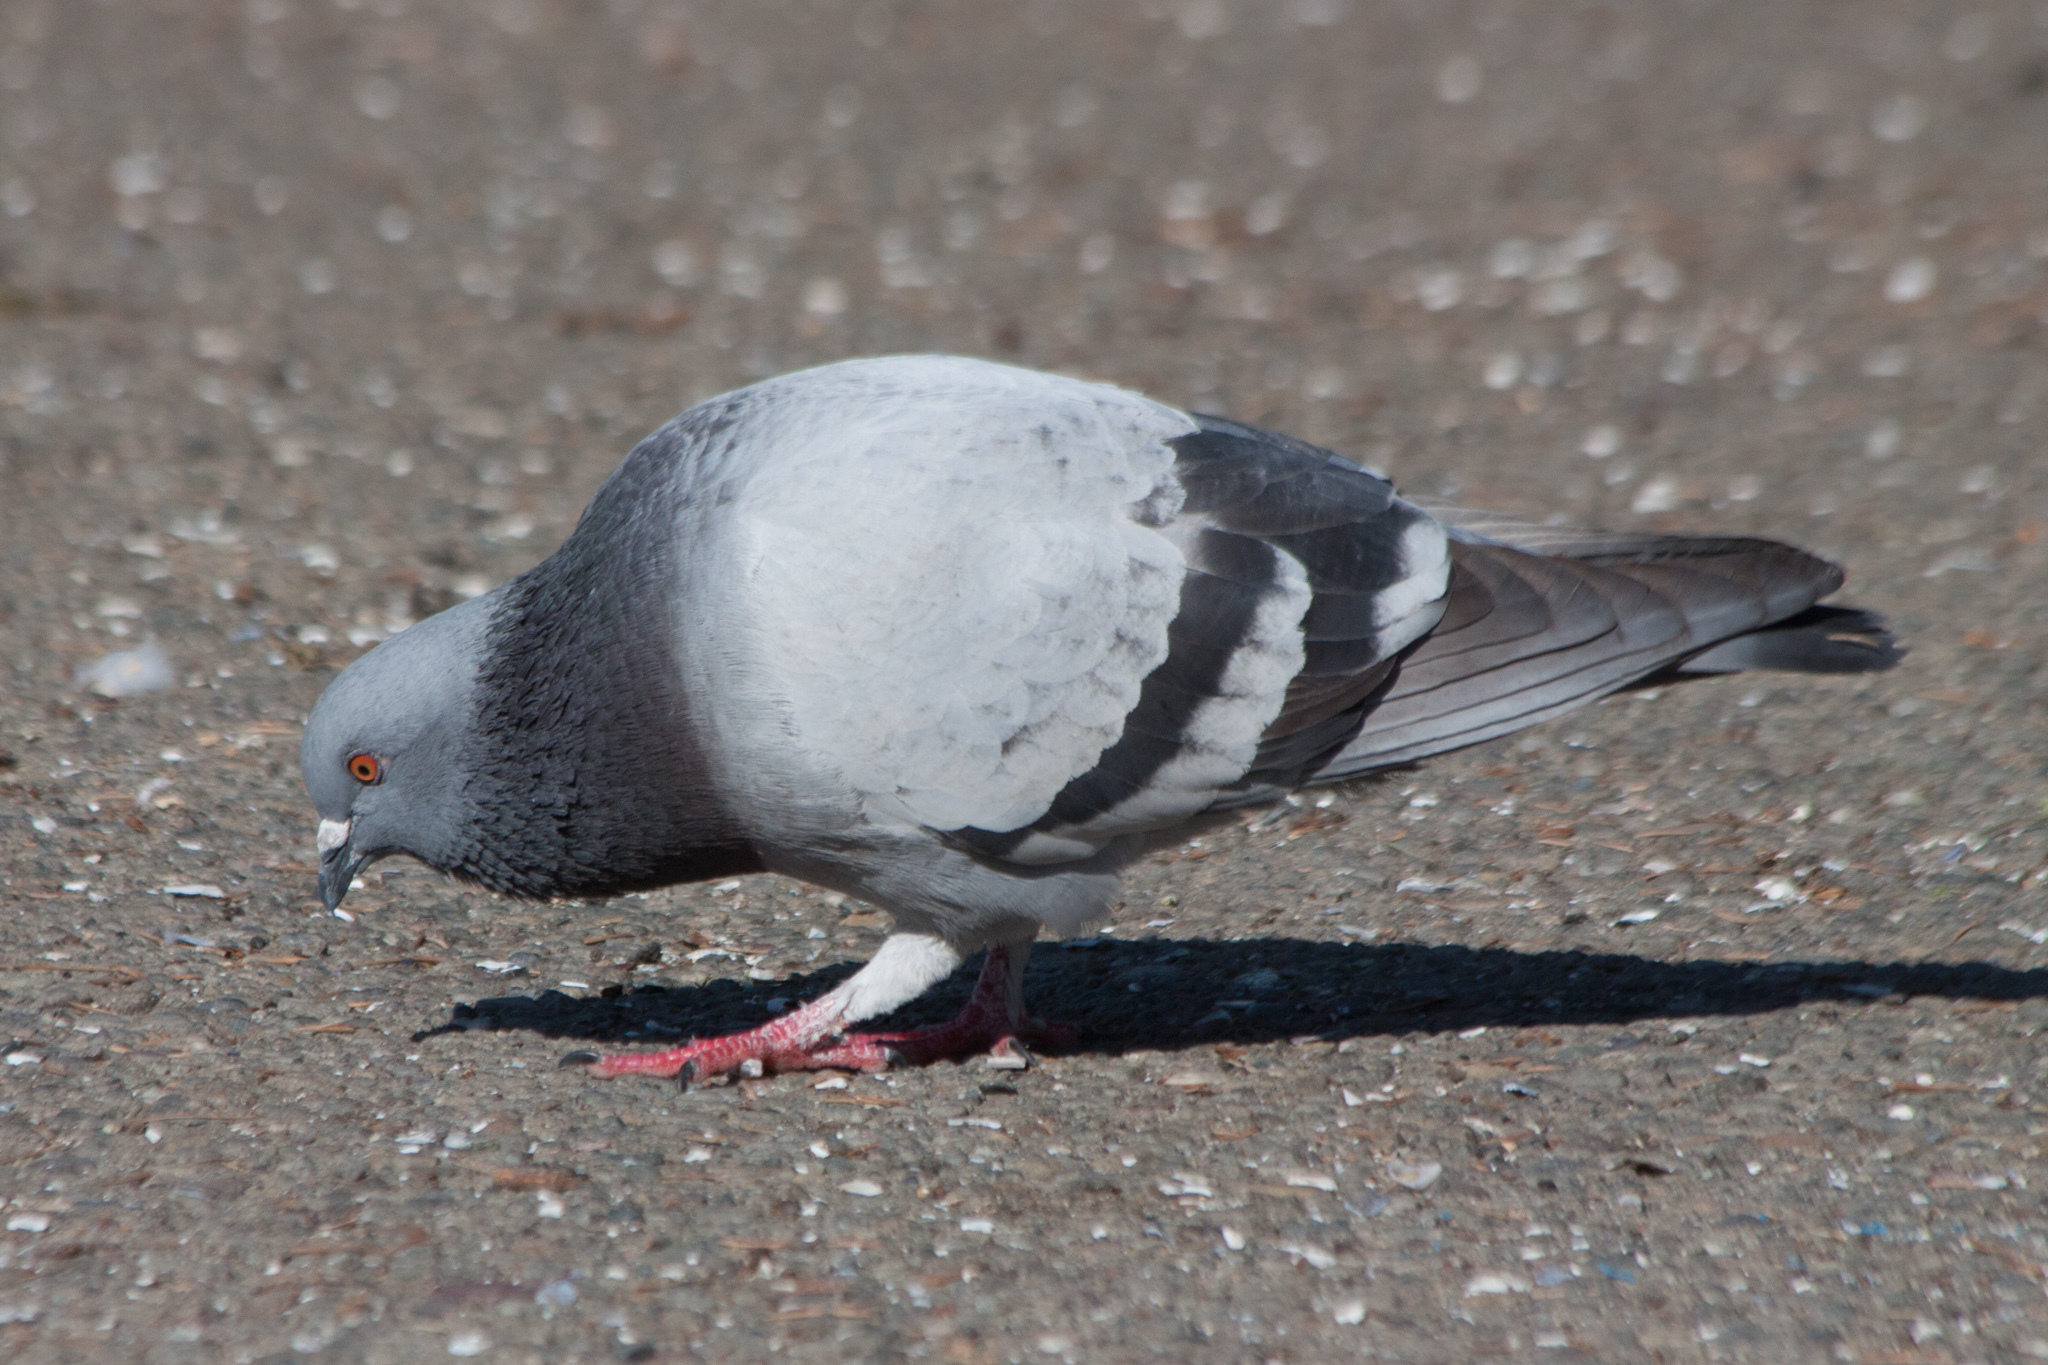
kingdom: Animalia
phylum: Chordata
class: Aves
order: Columbiformes
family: Columbidae
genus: Columba
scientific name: Columba livia
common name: Rock pigeon
